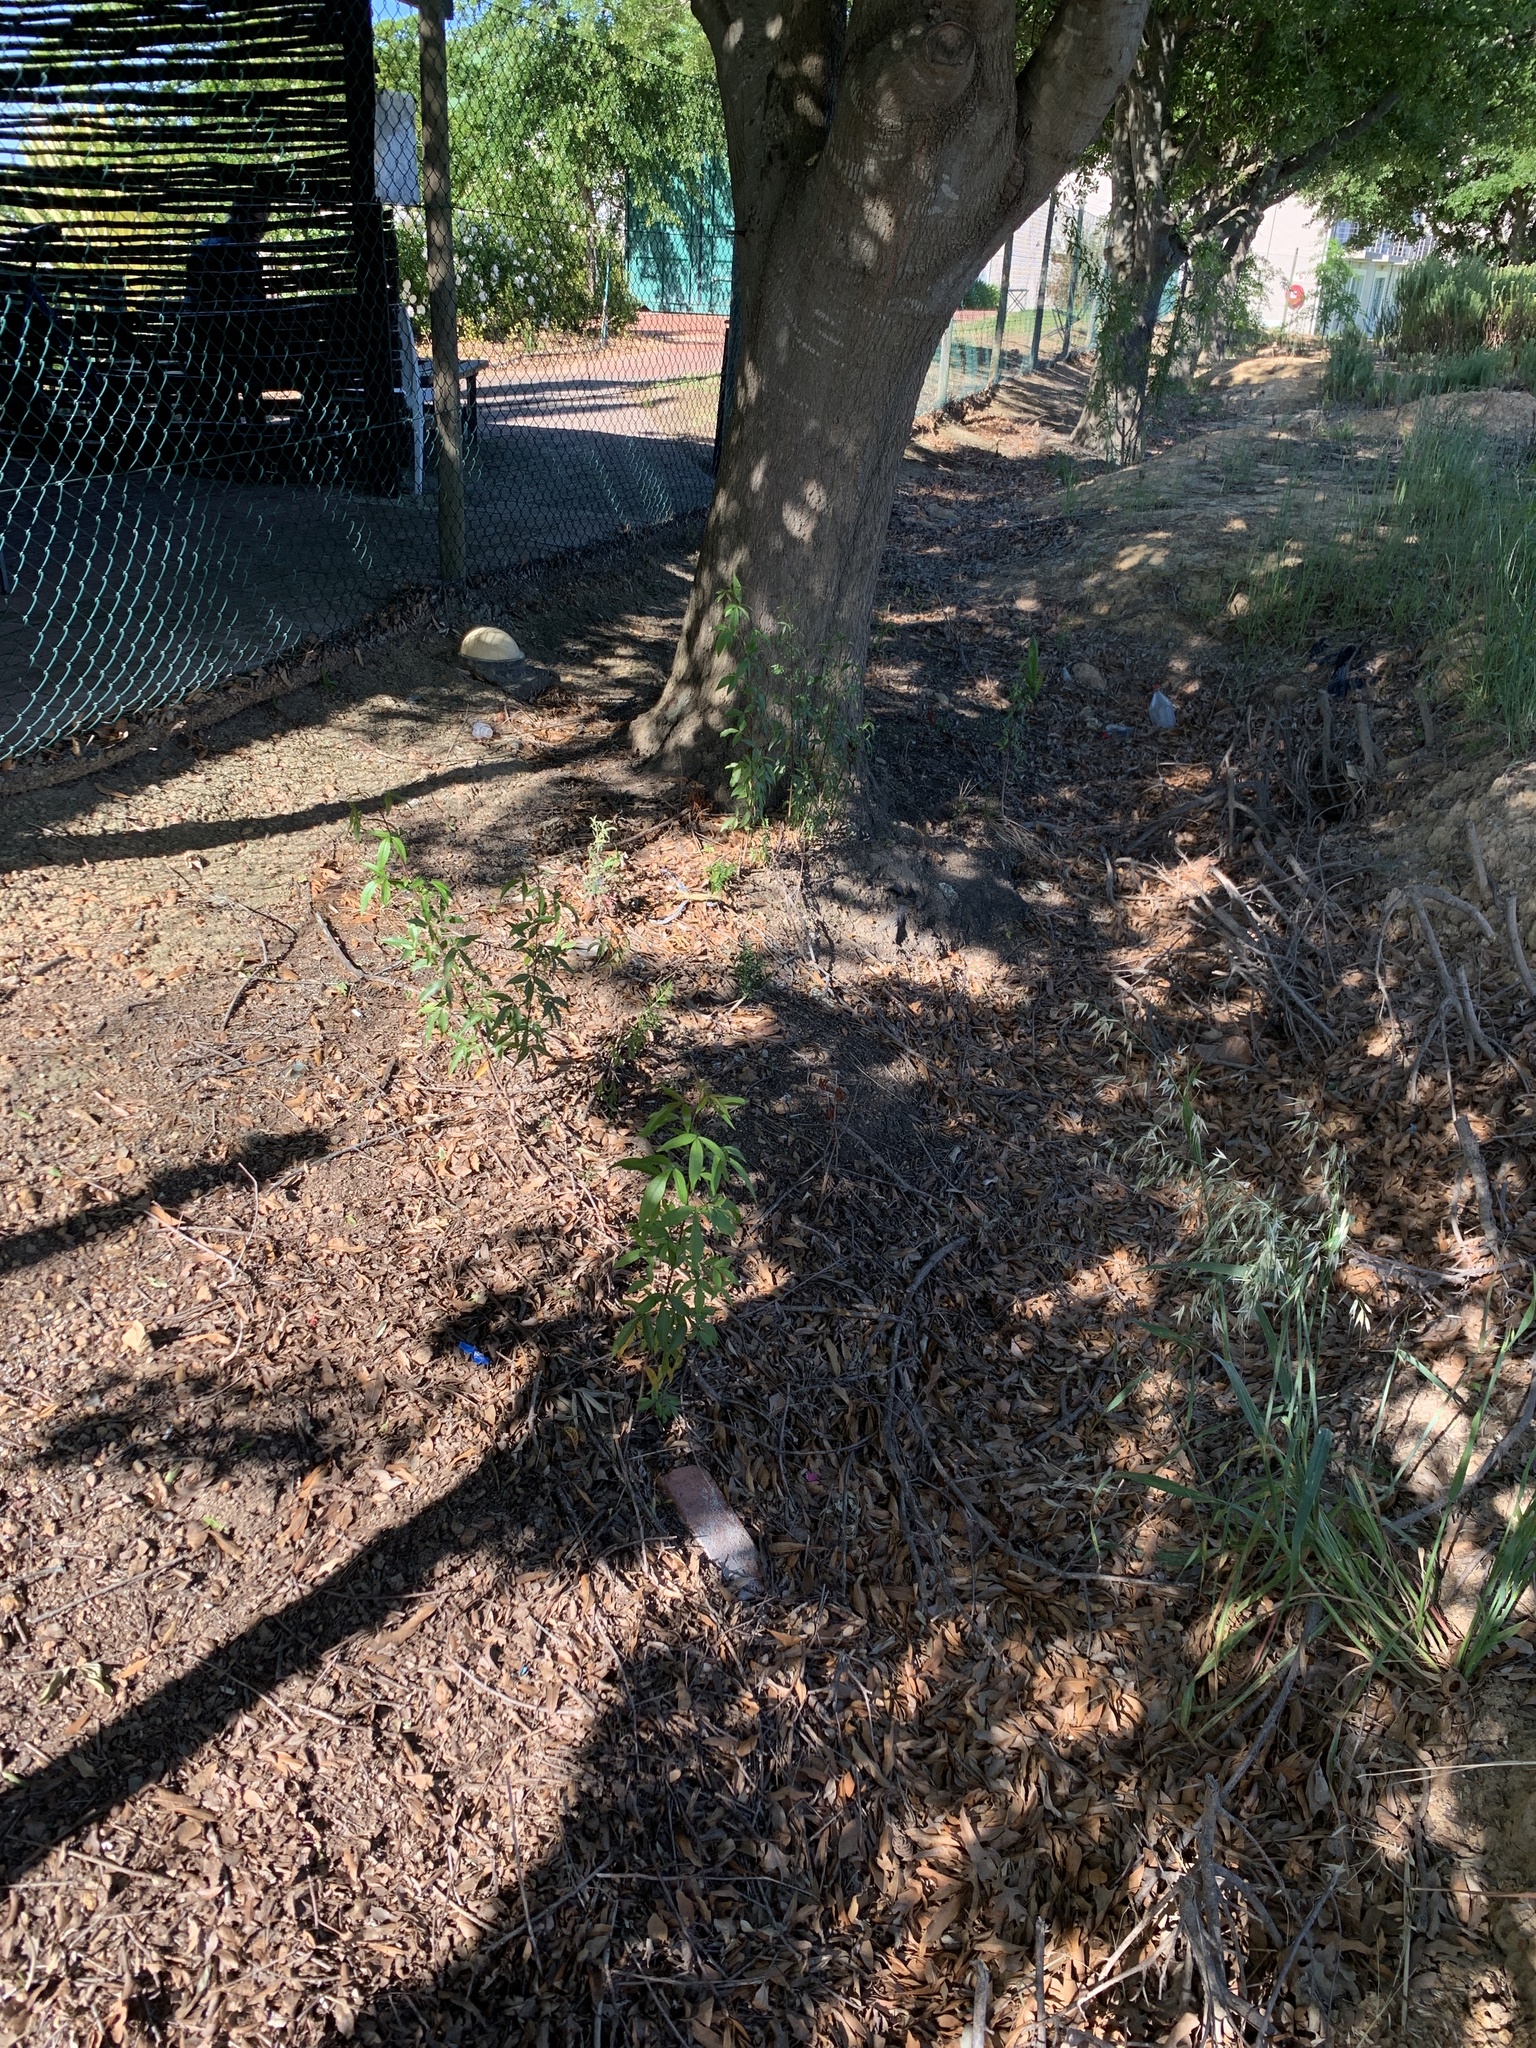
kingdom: Plantae
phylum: Tracheophyta
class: Magnoliopsida
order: Sapindales
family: Anacardiaceae
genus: Searsia
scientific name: Searsia pendulina
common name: White karee
